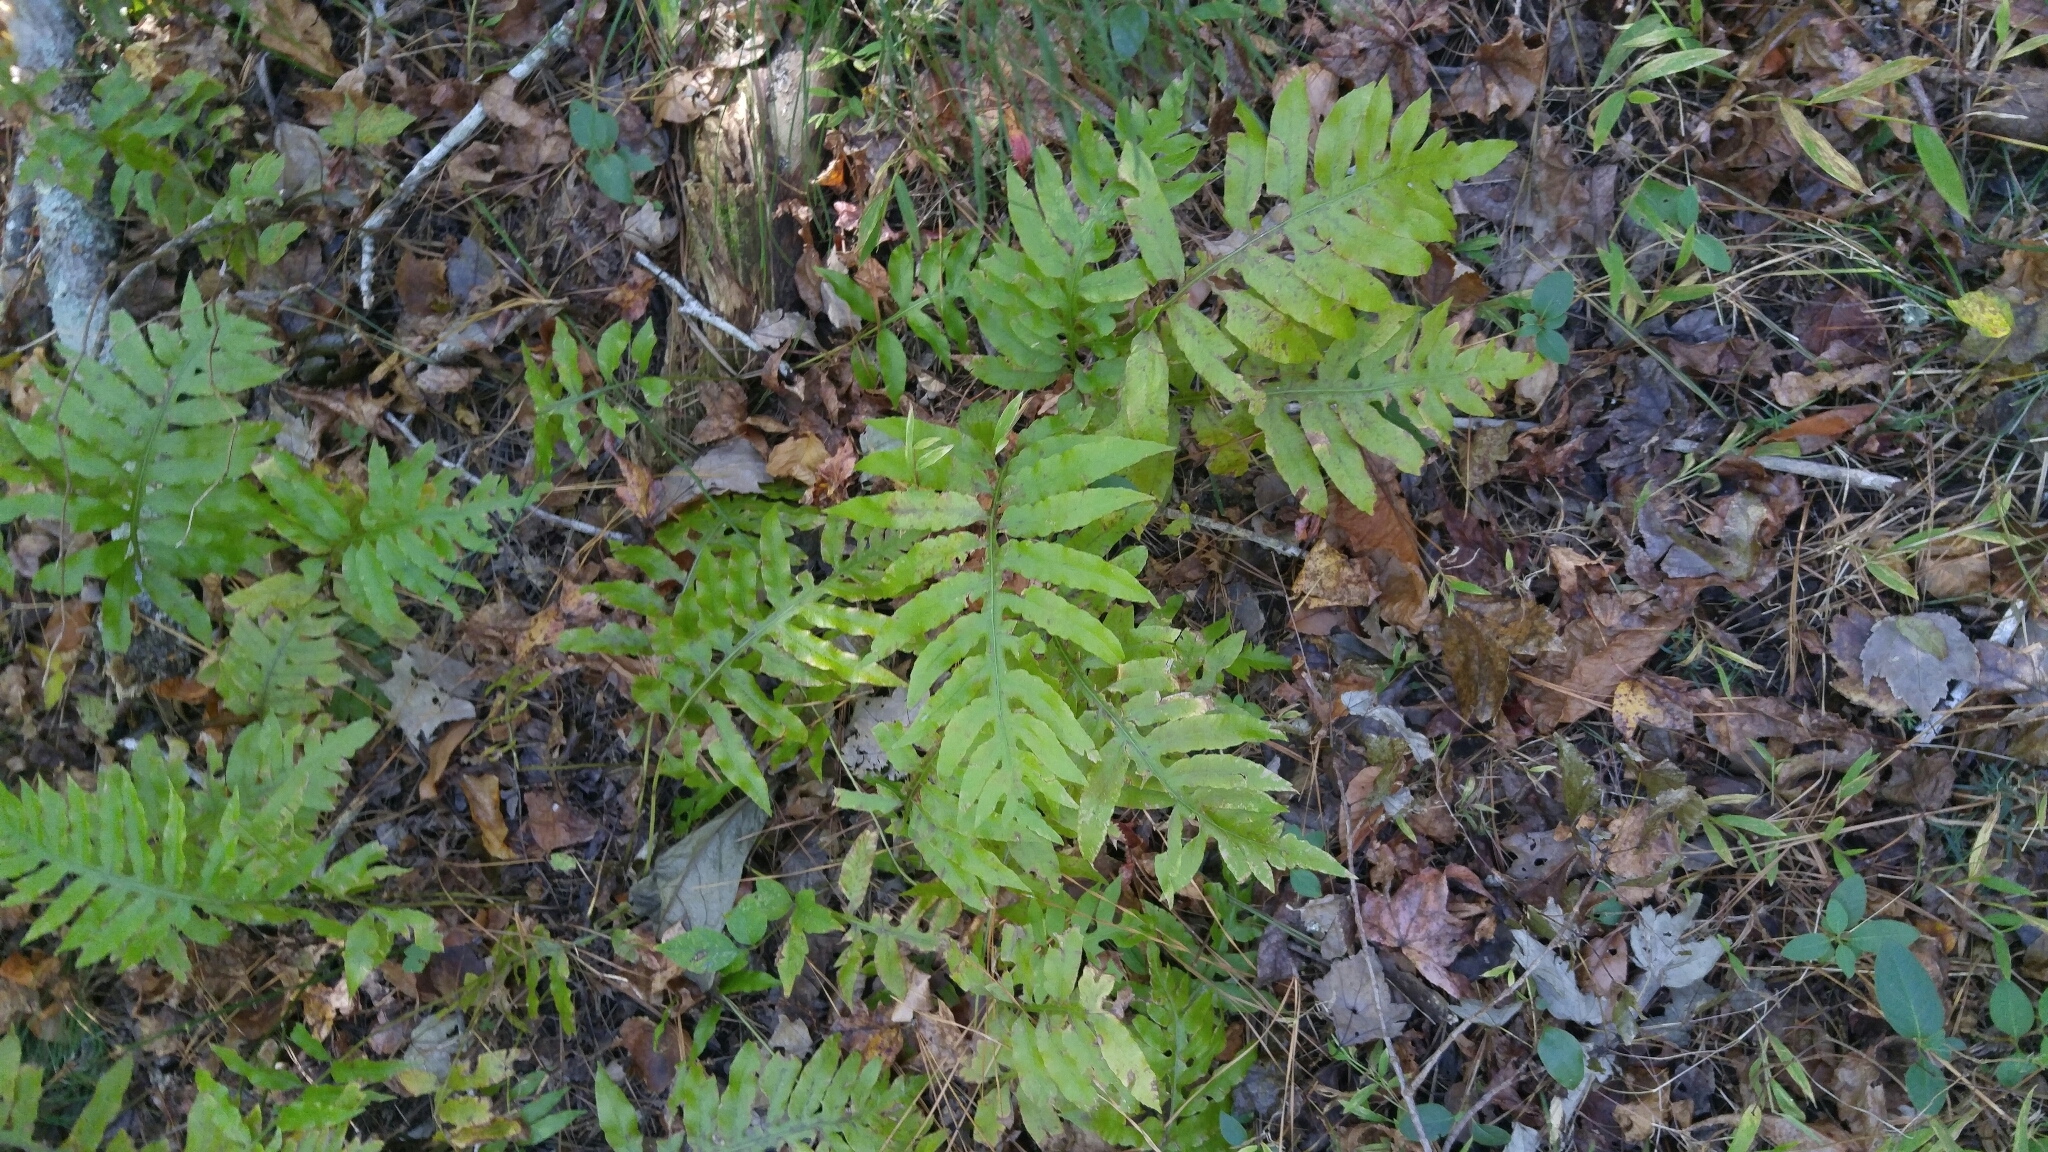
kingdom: Plantae
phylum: Tracheophyta
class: Polypodiopsida
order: Polypodiales
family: Blechnaceae
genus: Lorinseria
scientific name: Lorinseria areolata
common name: Dwarf chain fern
